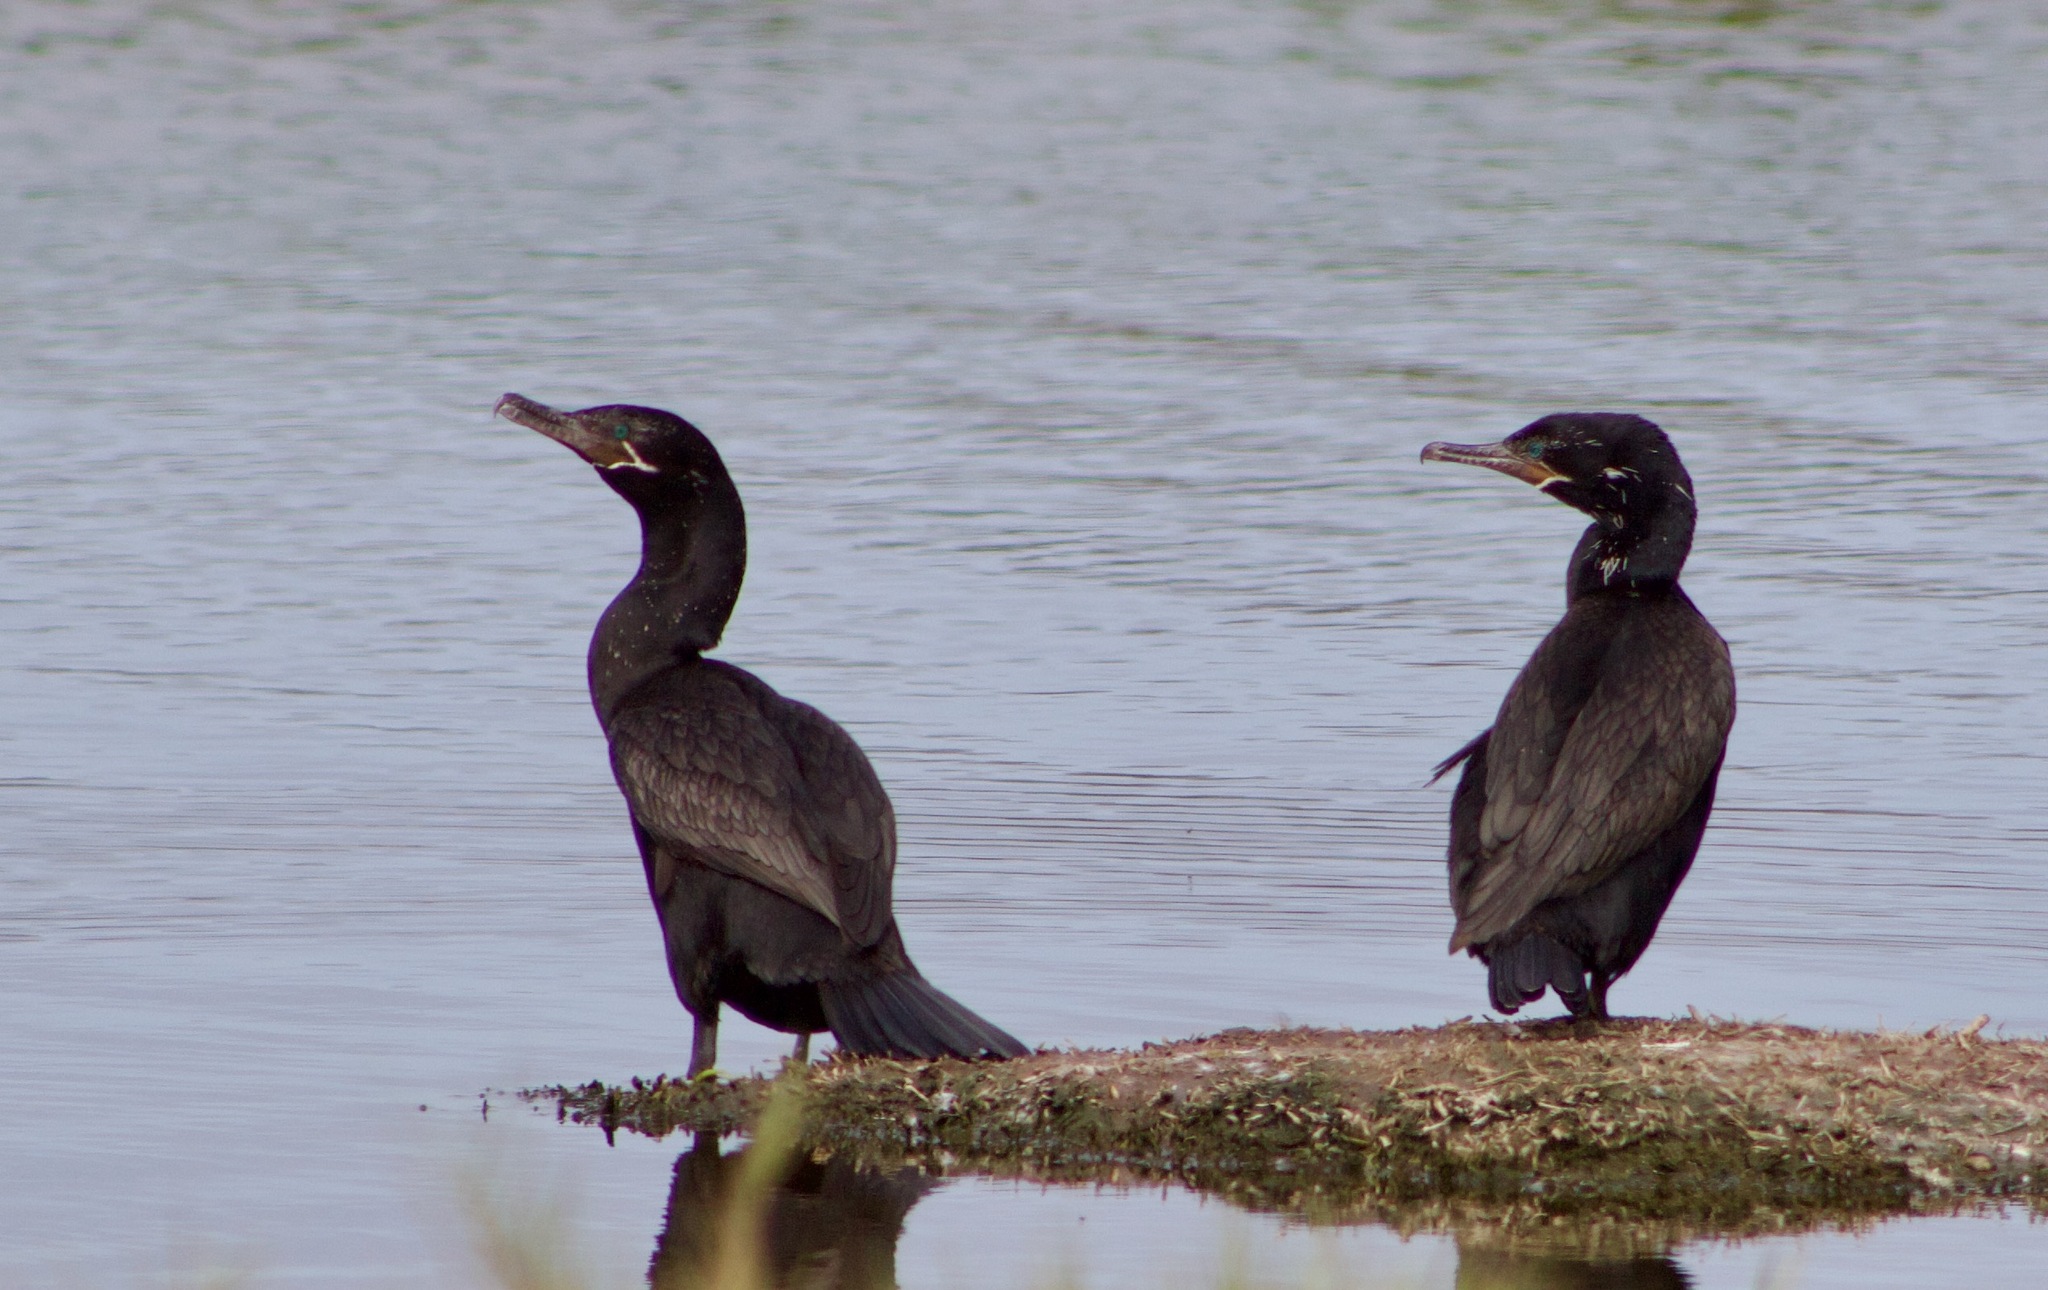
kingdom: Animalia
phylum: Chordata
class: Aves
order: Suliformes
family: Phalacrocoracidae
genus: Phalacrocorax
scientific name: Phalacrocorax brasilianus
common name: Neotropic cormorant
